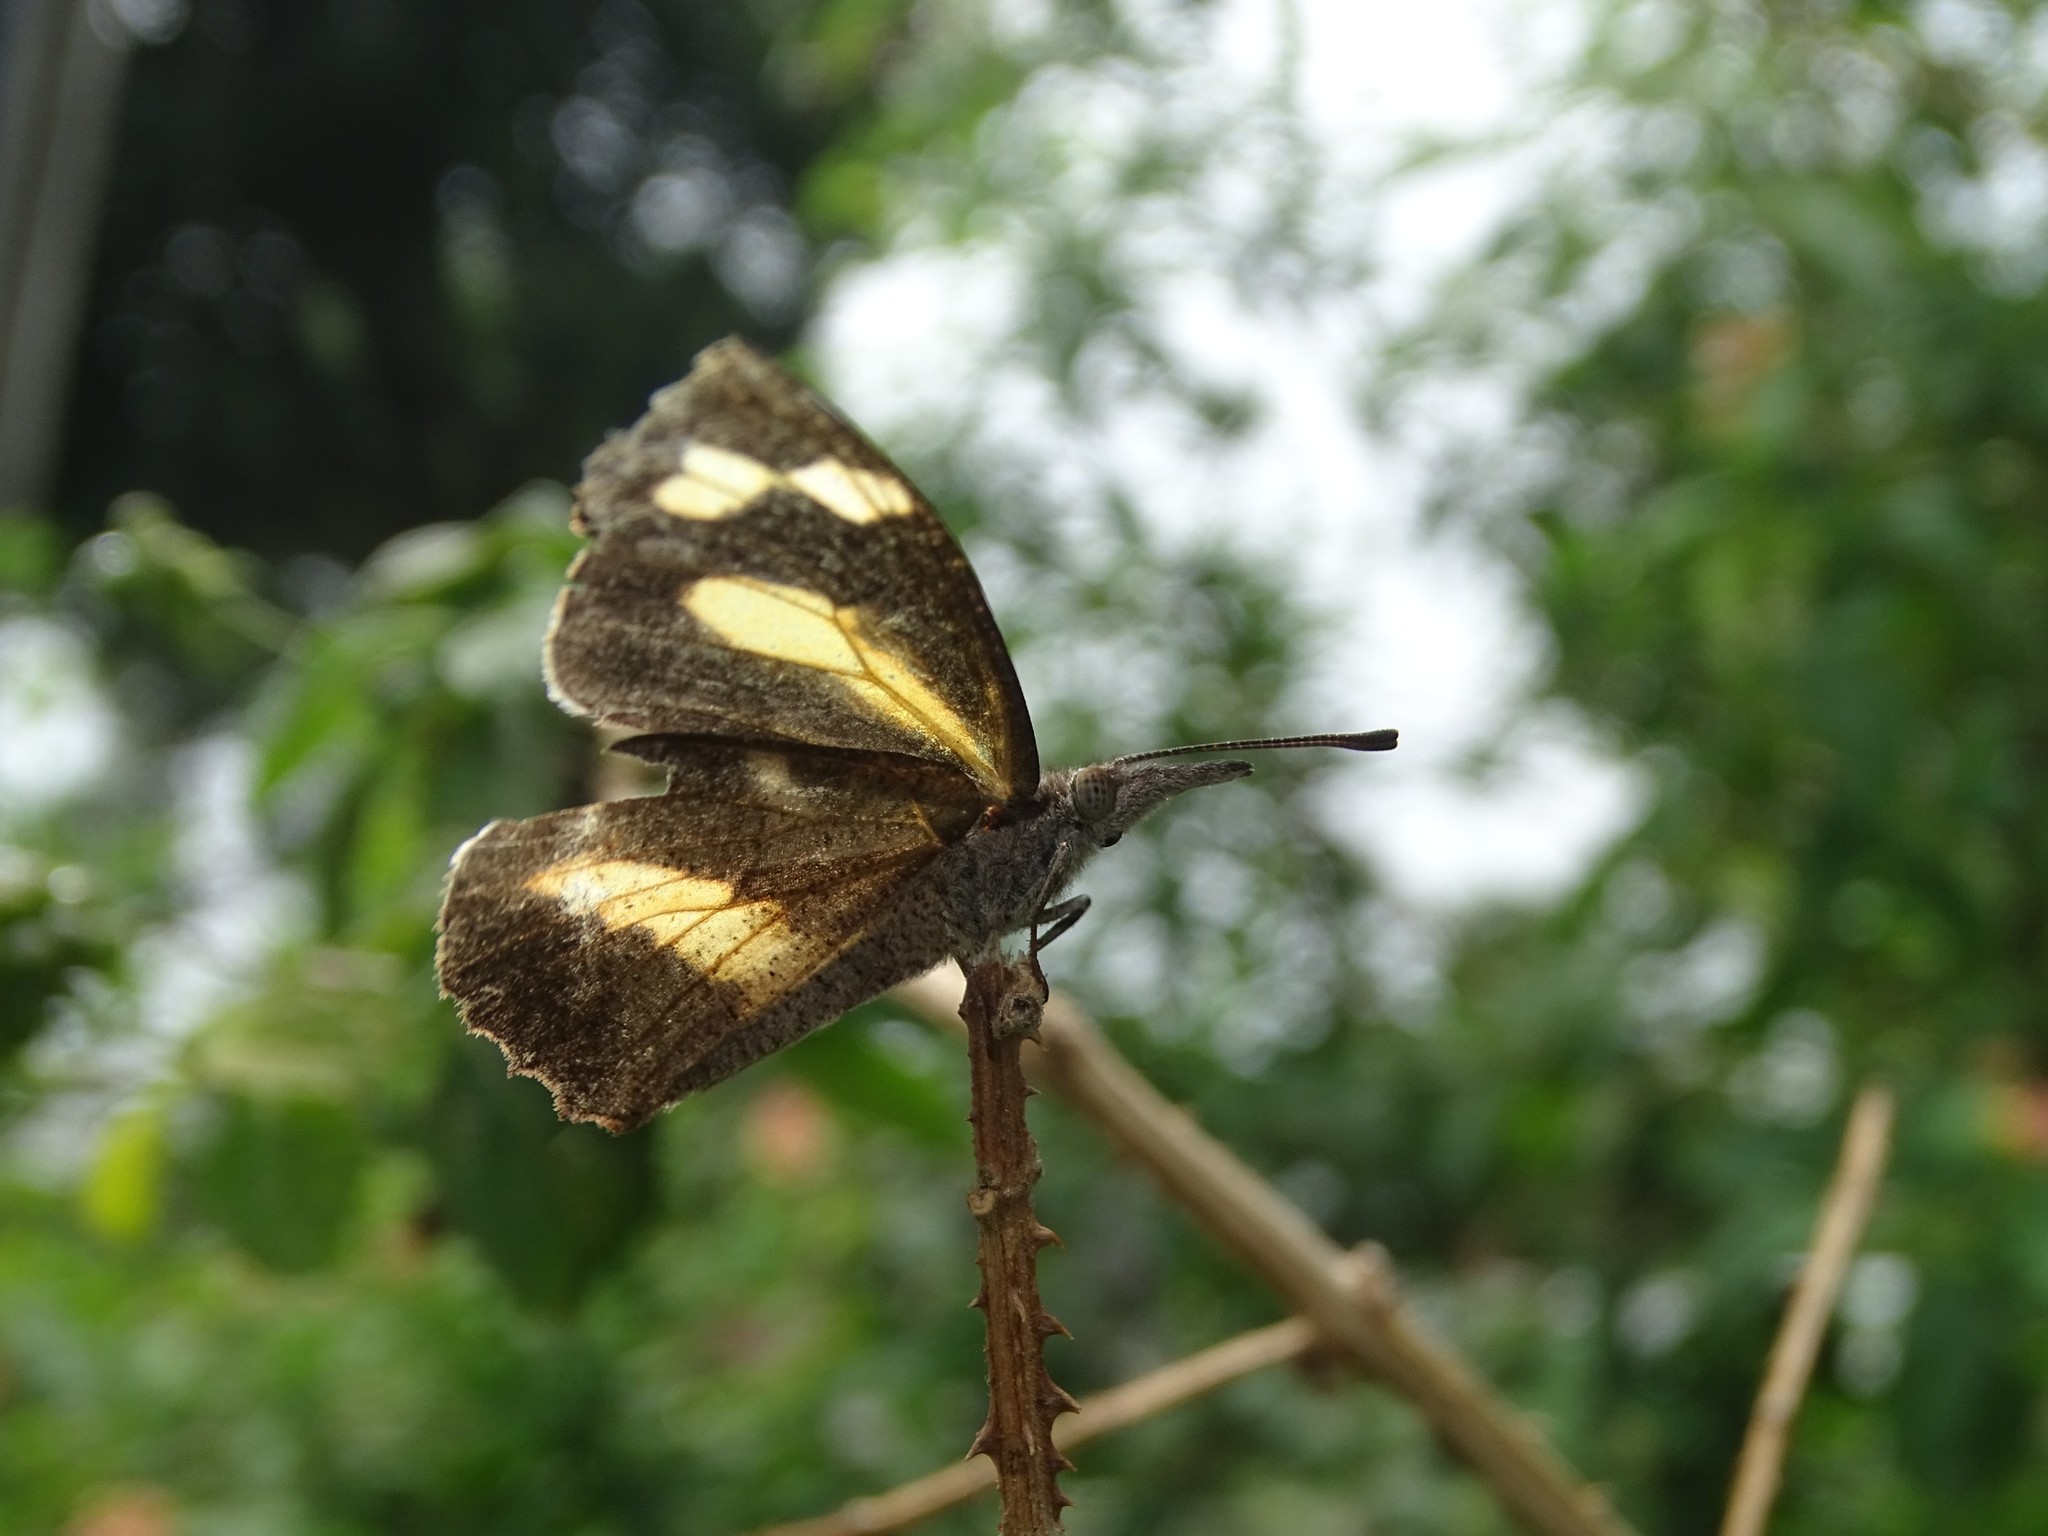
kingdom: Animalia
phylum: Arthropoda
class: Insecta
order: Lepidoptera
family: Nymphalidae
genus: Libythea
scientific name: Libythea myrrha
